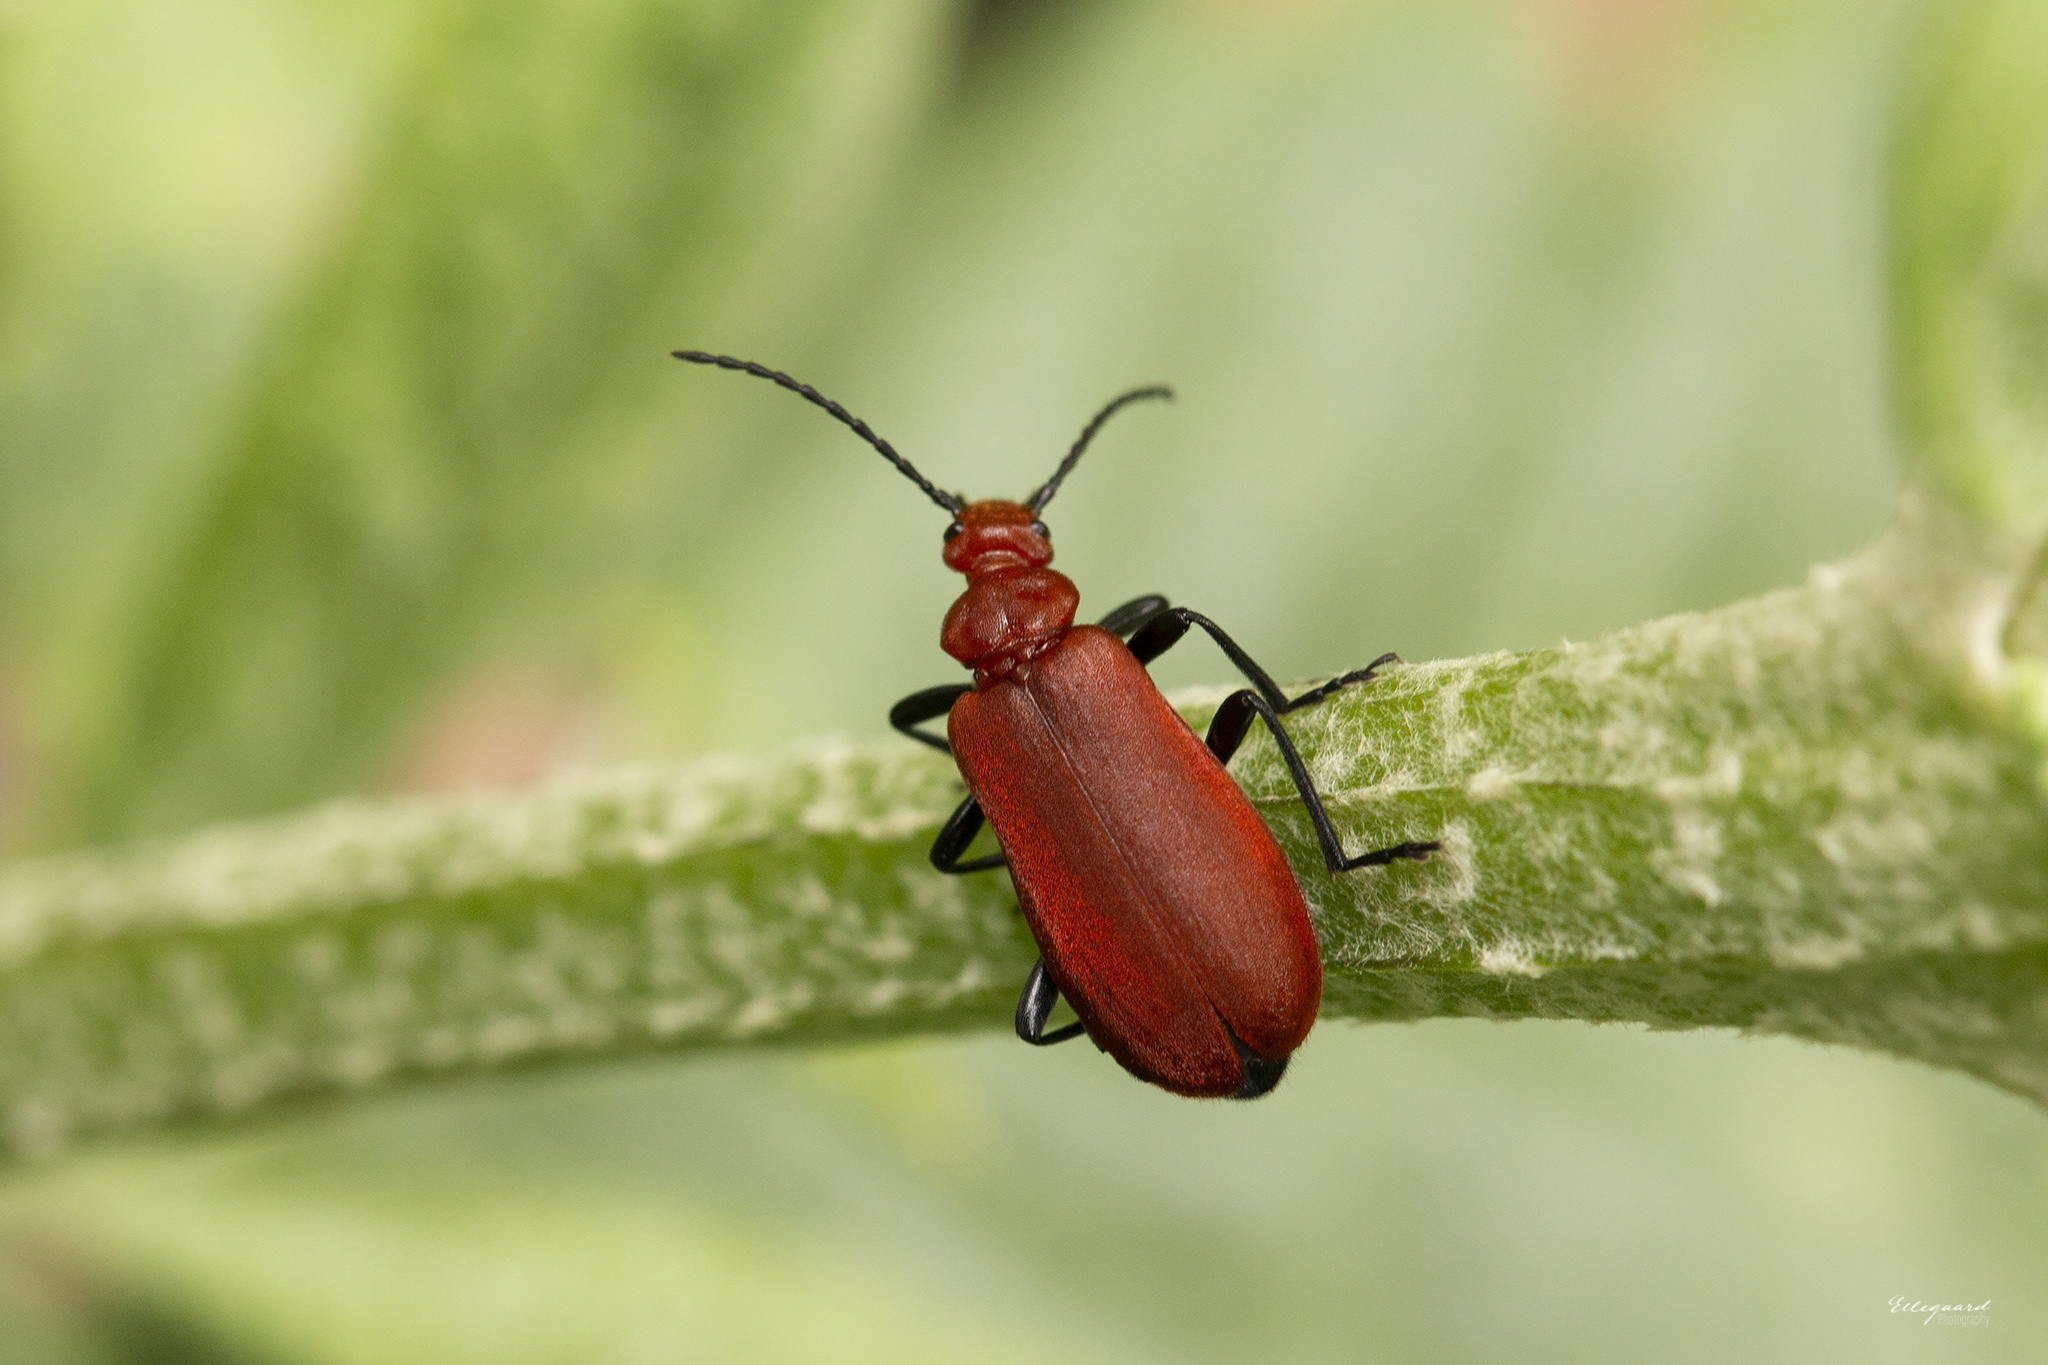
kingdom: Animalia
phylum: Arthropoda
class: Insecta
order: Coleoptera
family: Pyrochroidae
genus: Pyrochroa
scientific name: Pyrochroa serraticornis
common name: Red-headed cardinal beetle
